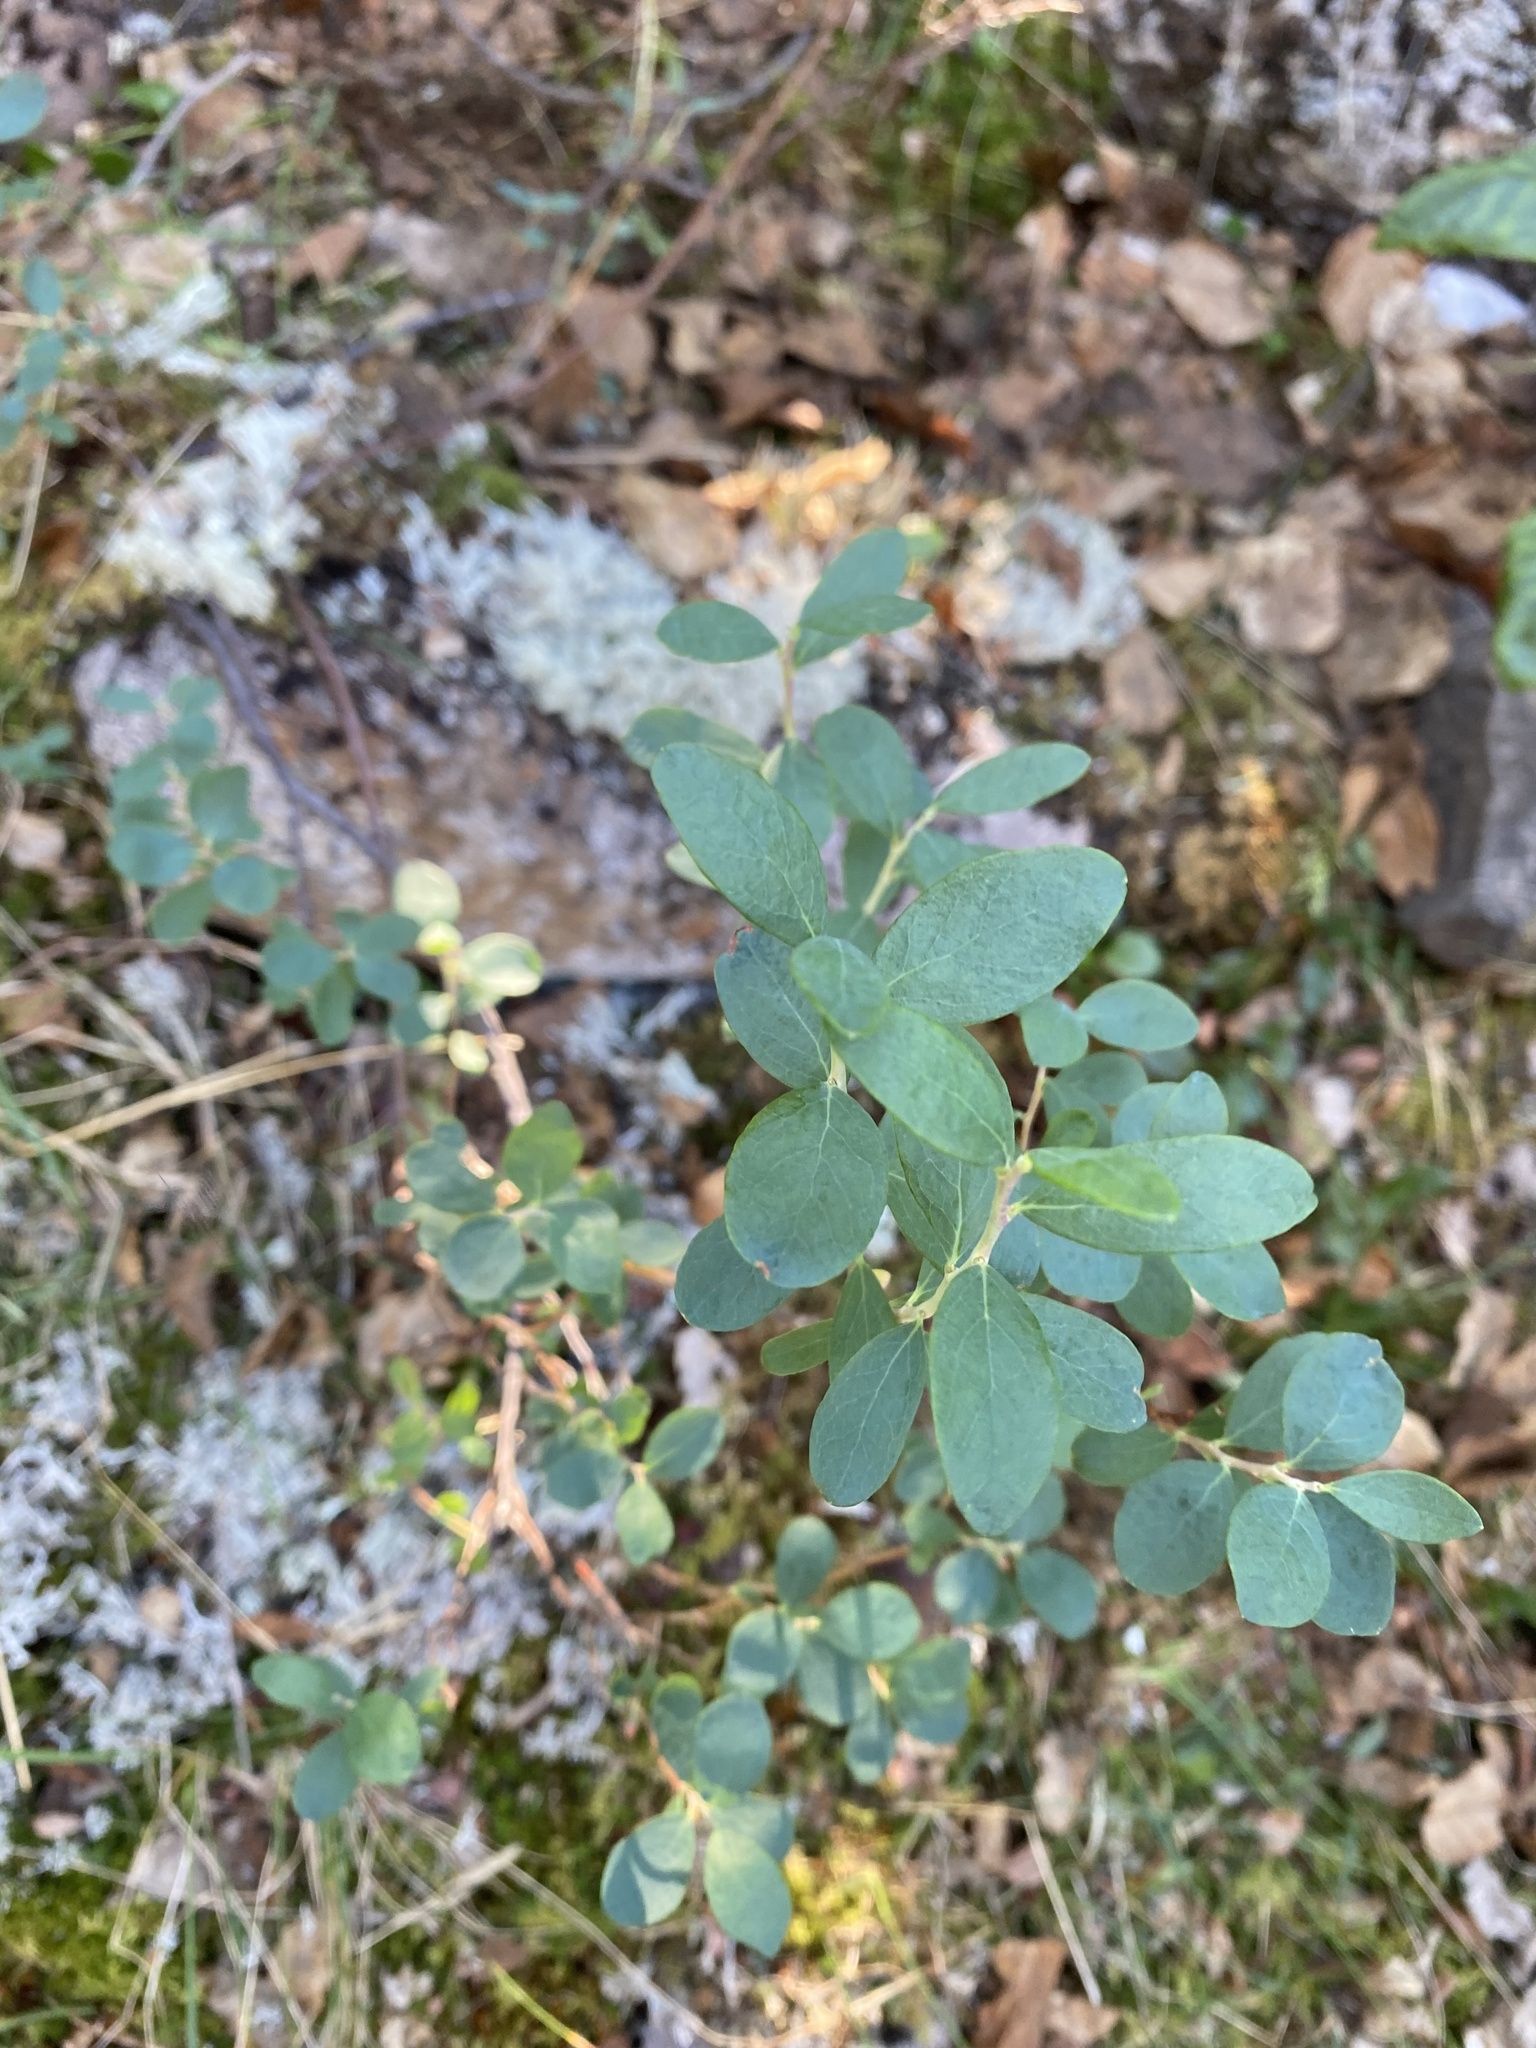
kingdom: Plantae
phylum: Tracheophyta
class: Magnoliopsida
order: Ericales
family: Ericaceae
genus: Vaccinium
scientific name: Vaccinium uliginosum
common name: Bog bilberry
